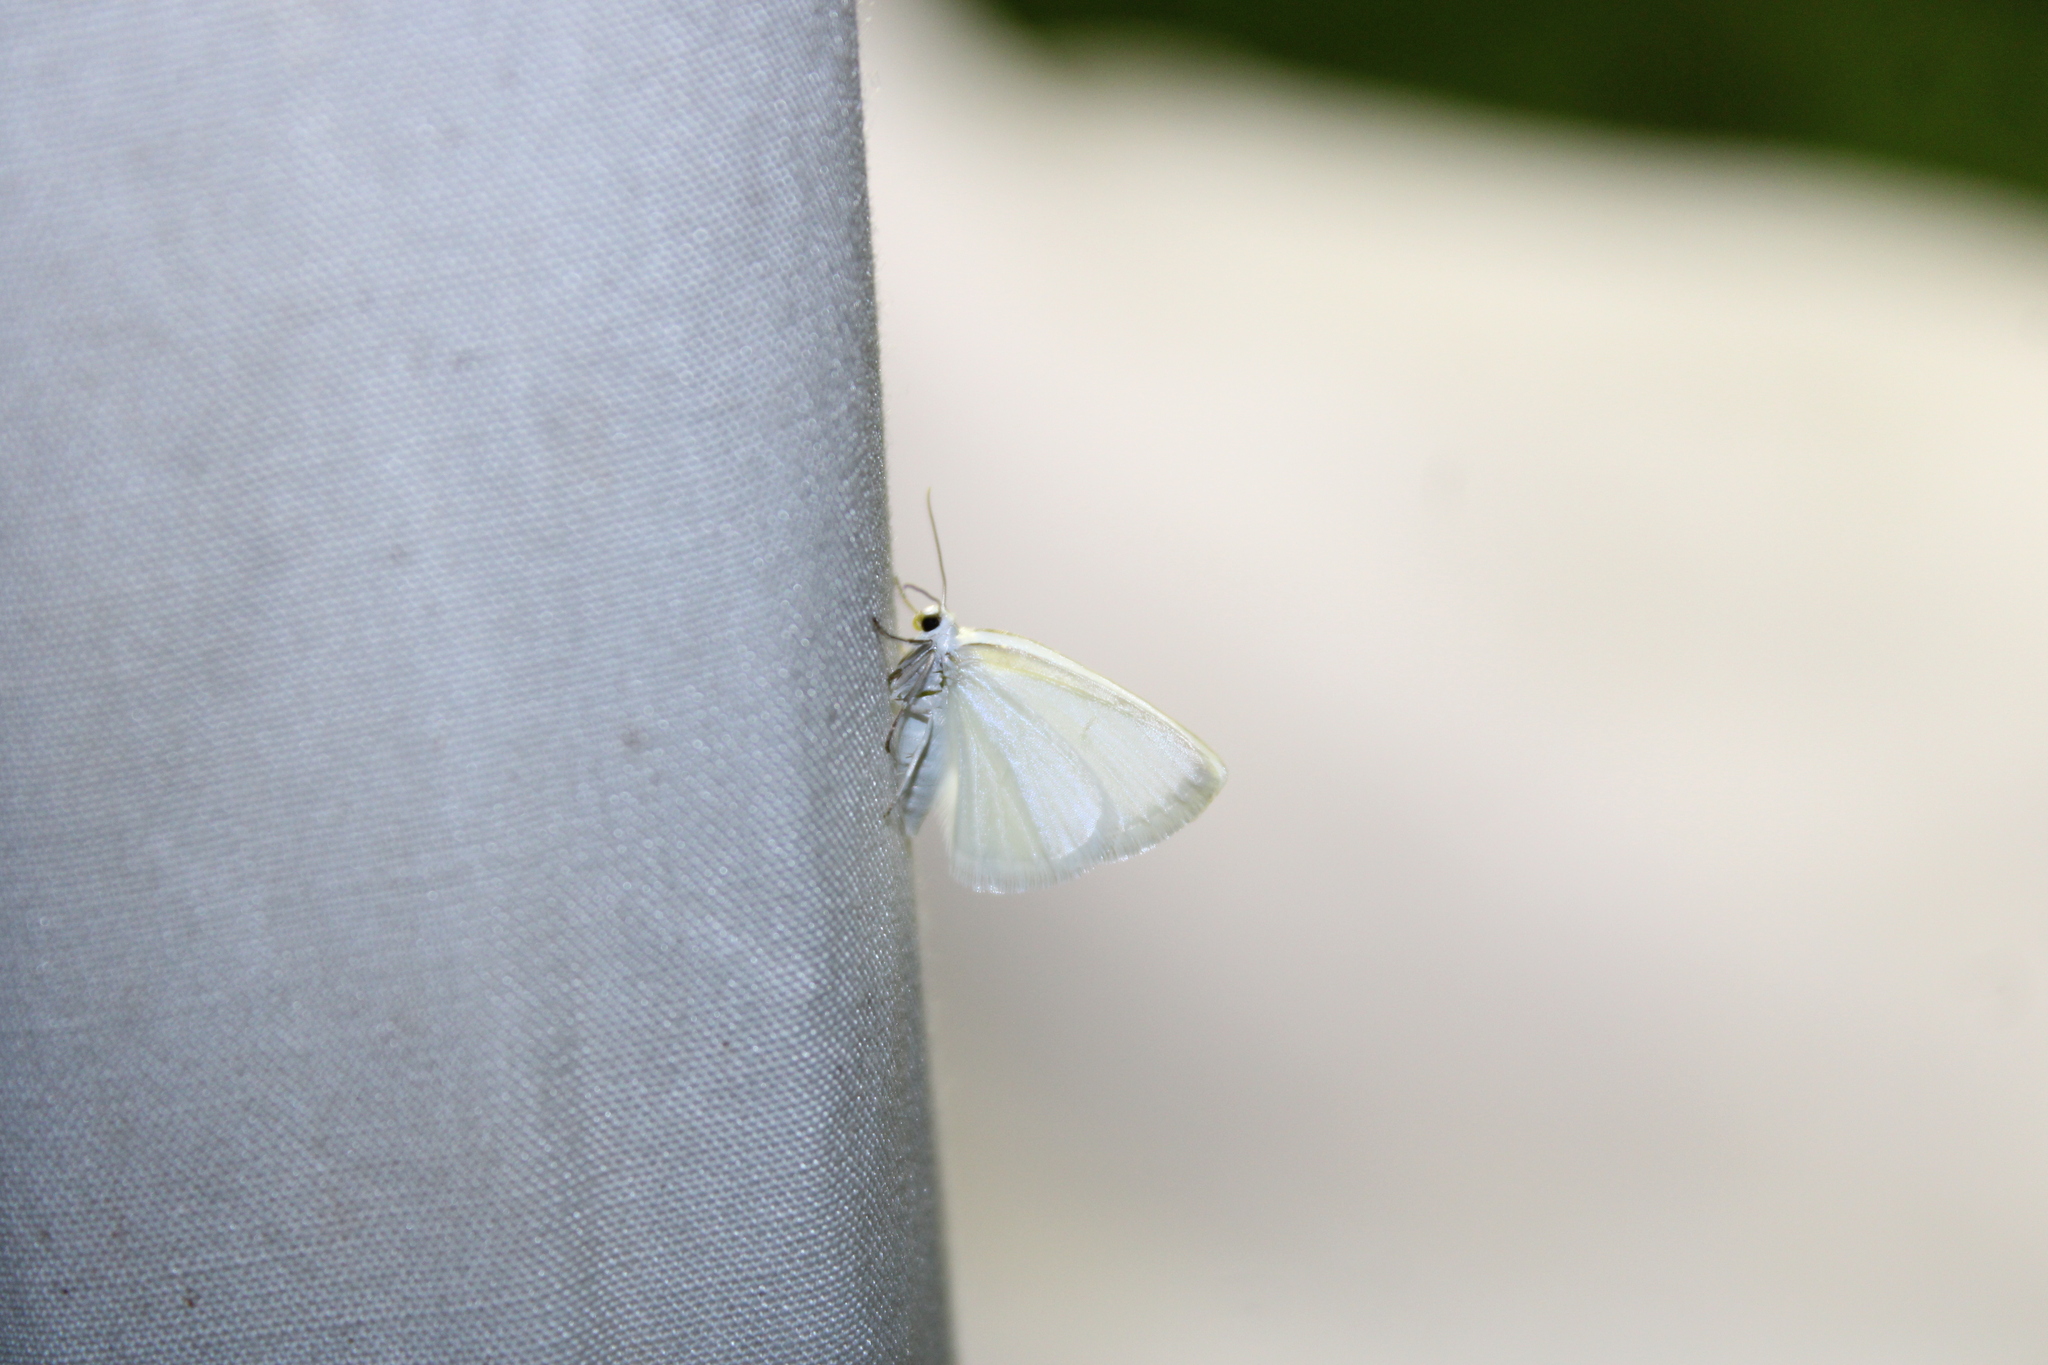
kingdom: Animalia
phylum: Arthropoda
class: Insecta
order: Lepidoptera
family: Geometridae
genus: Lomographa
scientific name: Lomographa vestaliata
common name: White spring moth
